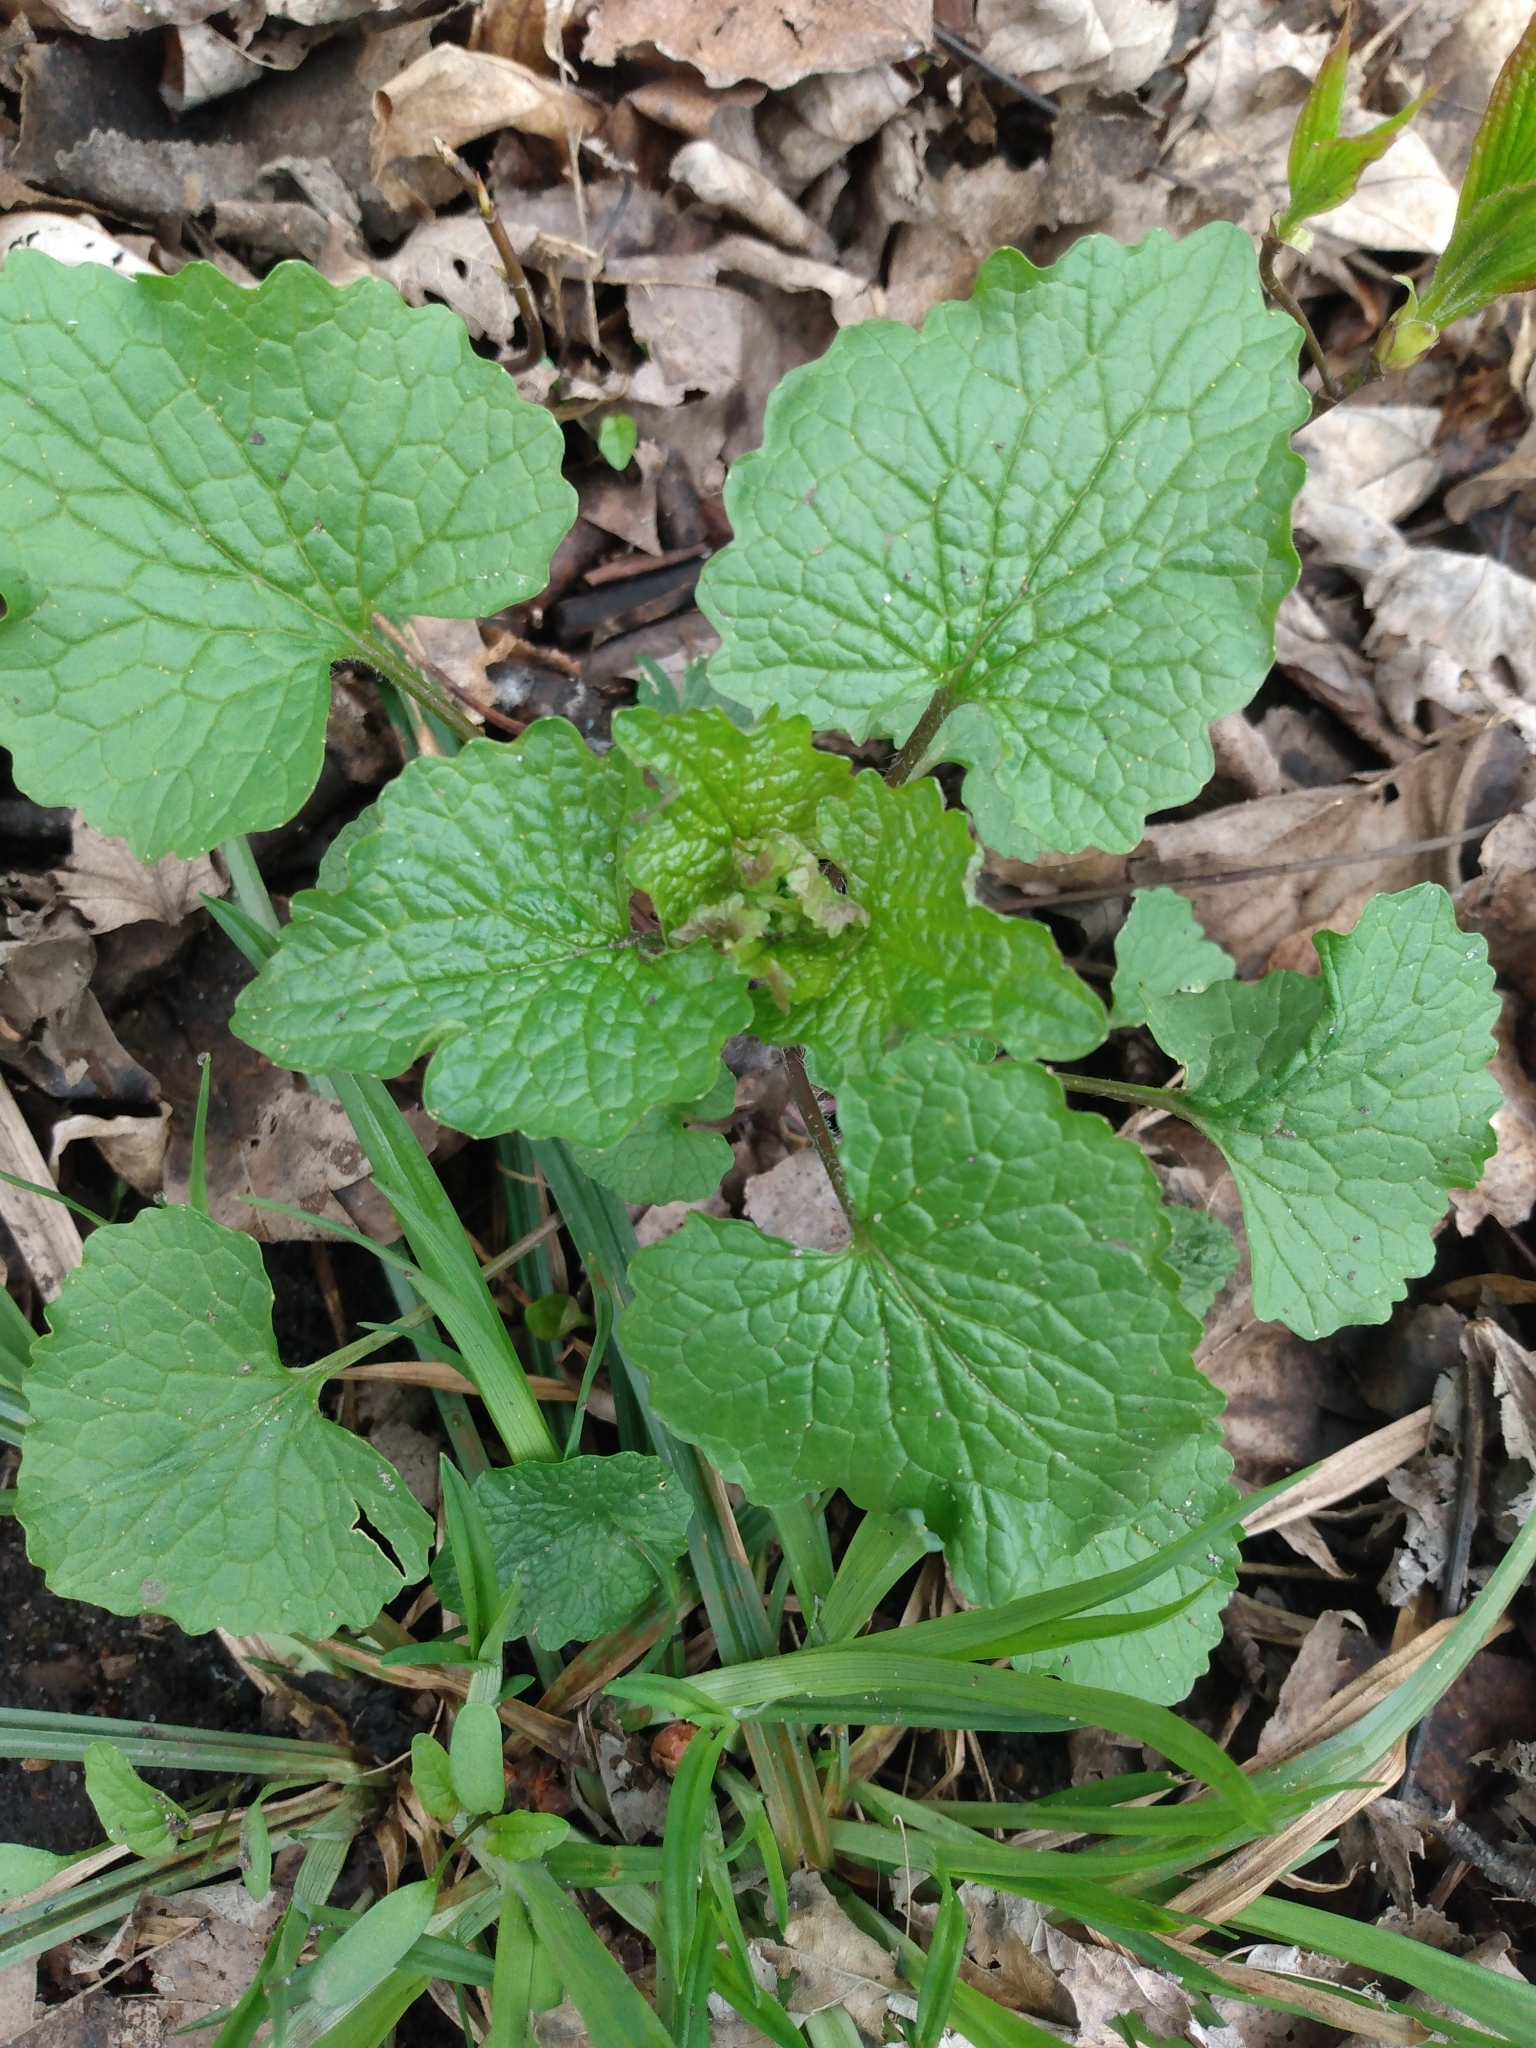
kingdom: Plantae
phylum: Tracheophyta
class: Magnoliopsida
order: Brassicales
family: Brassicaceae
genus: Alliaria
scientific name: Alliaria petiolata
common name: Garlic mustard
